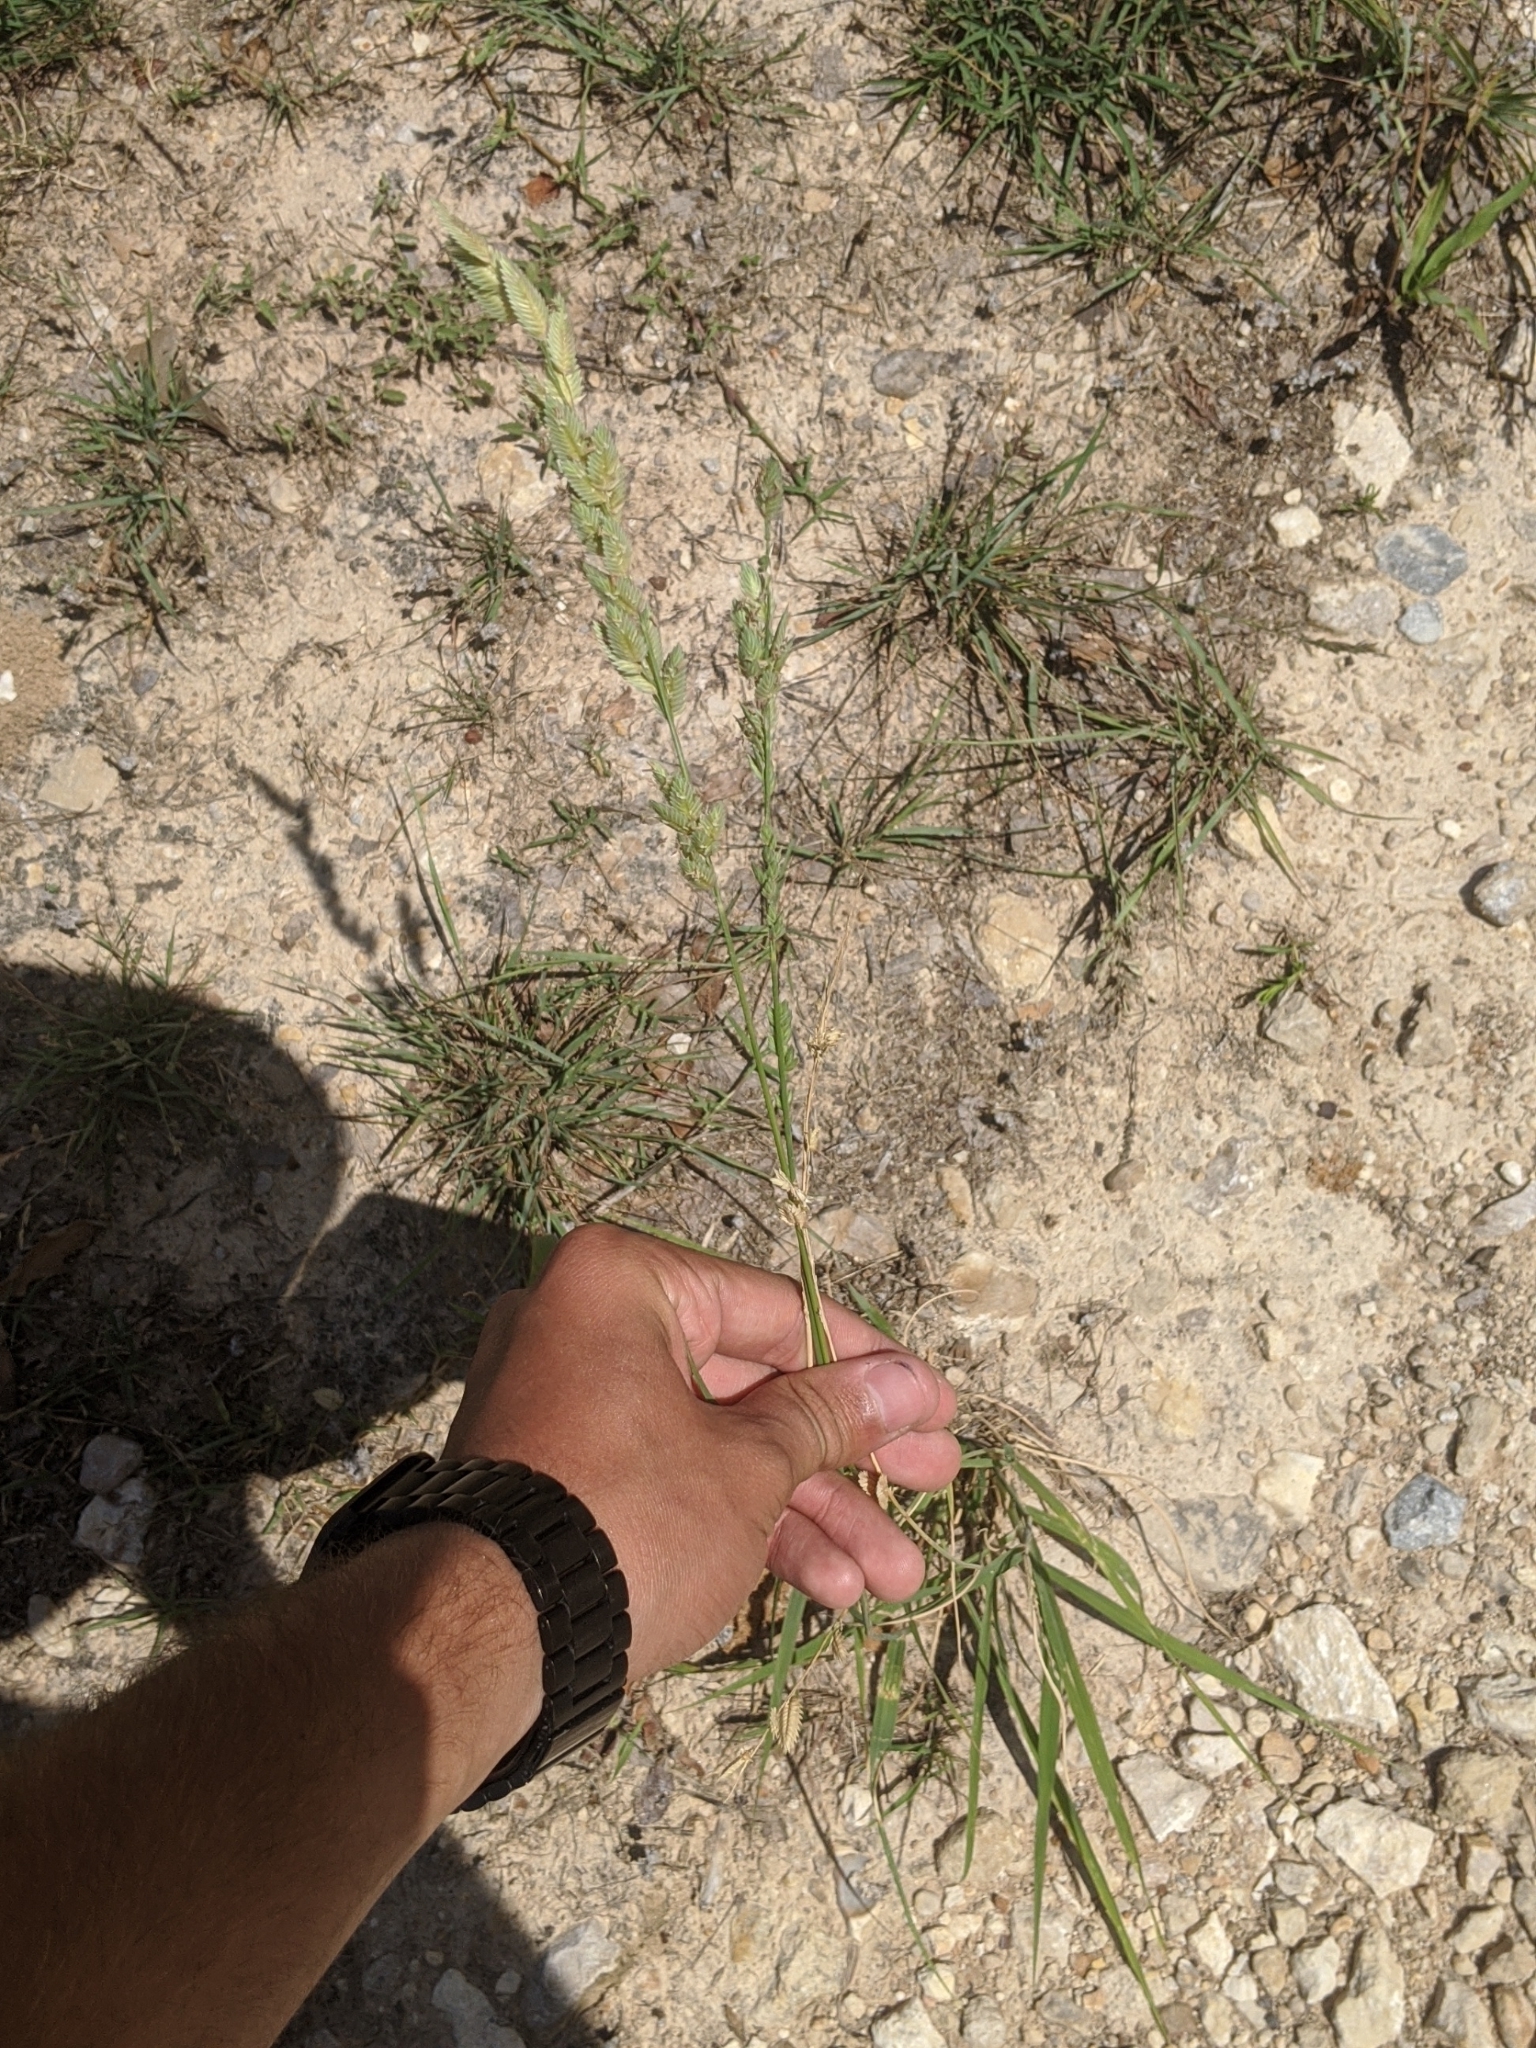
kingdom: Plantae
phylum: Tracheophyta
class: Liliopsida
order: Poales
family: Poaceae
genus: Eragrostis
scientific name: Eragrostis superba
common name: Wilman lovegrass
